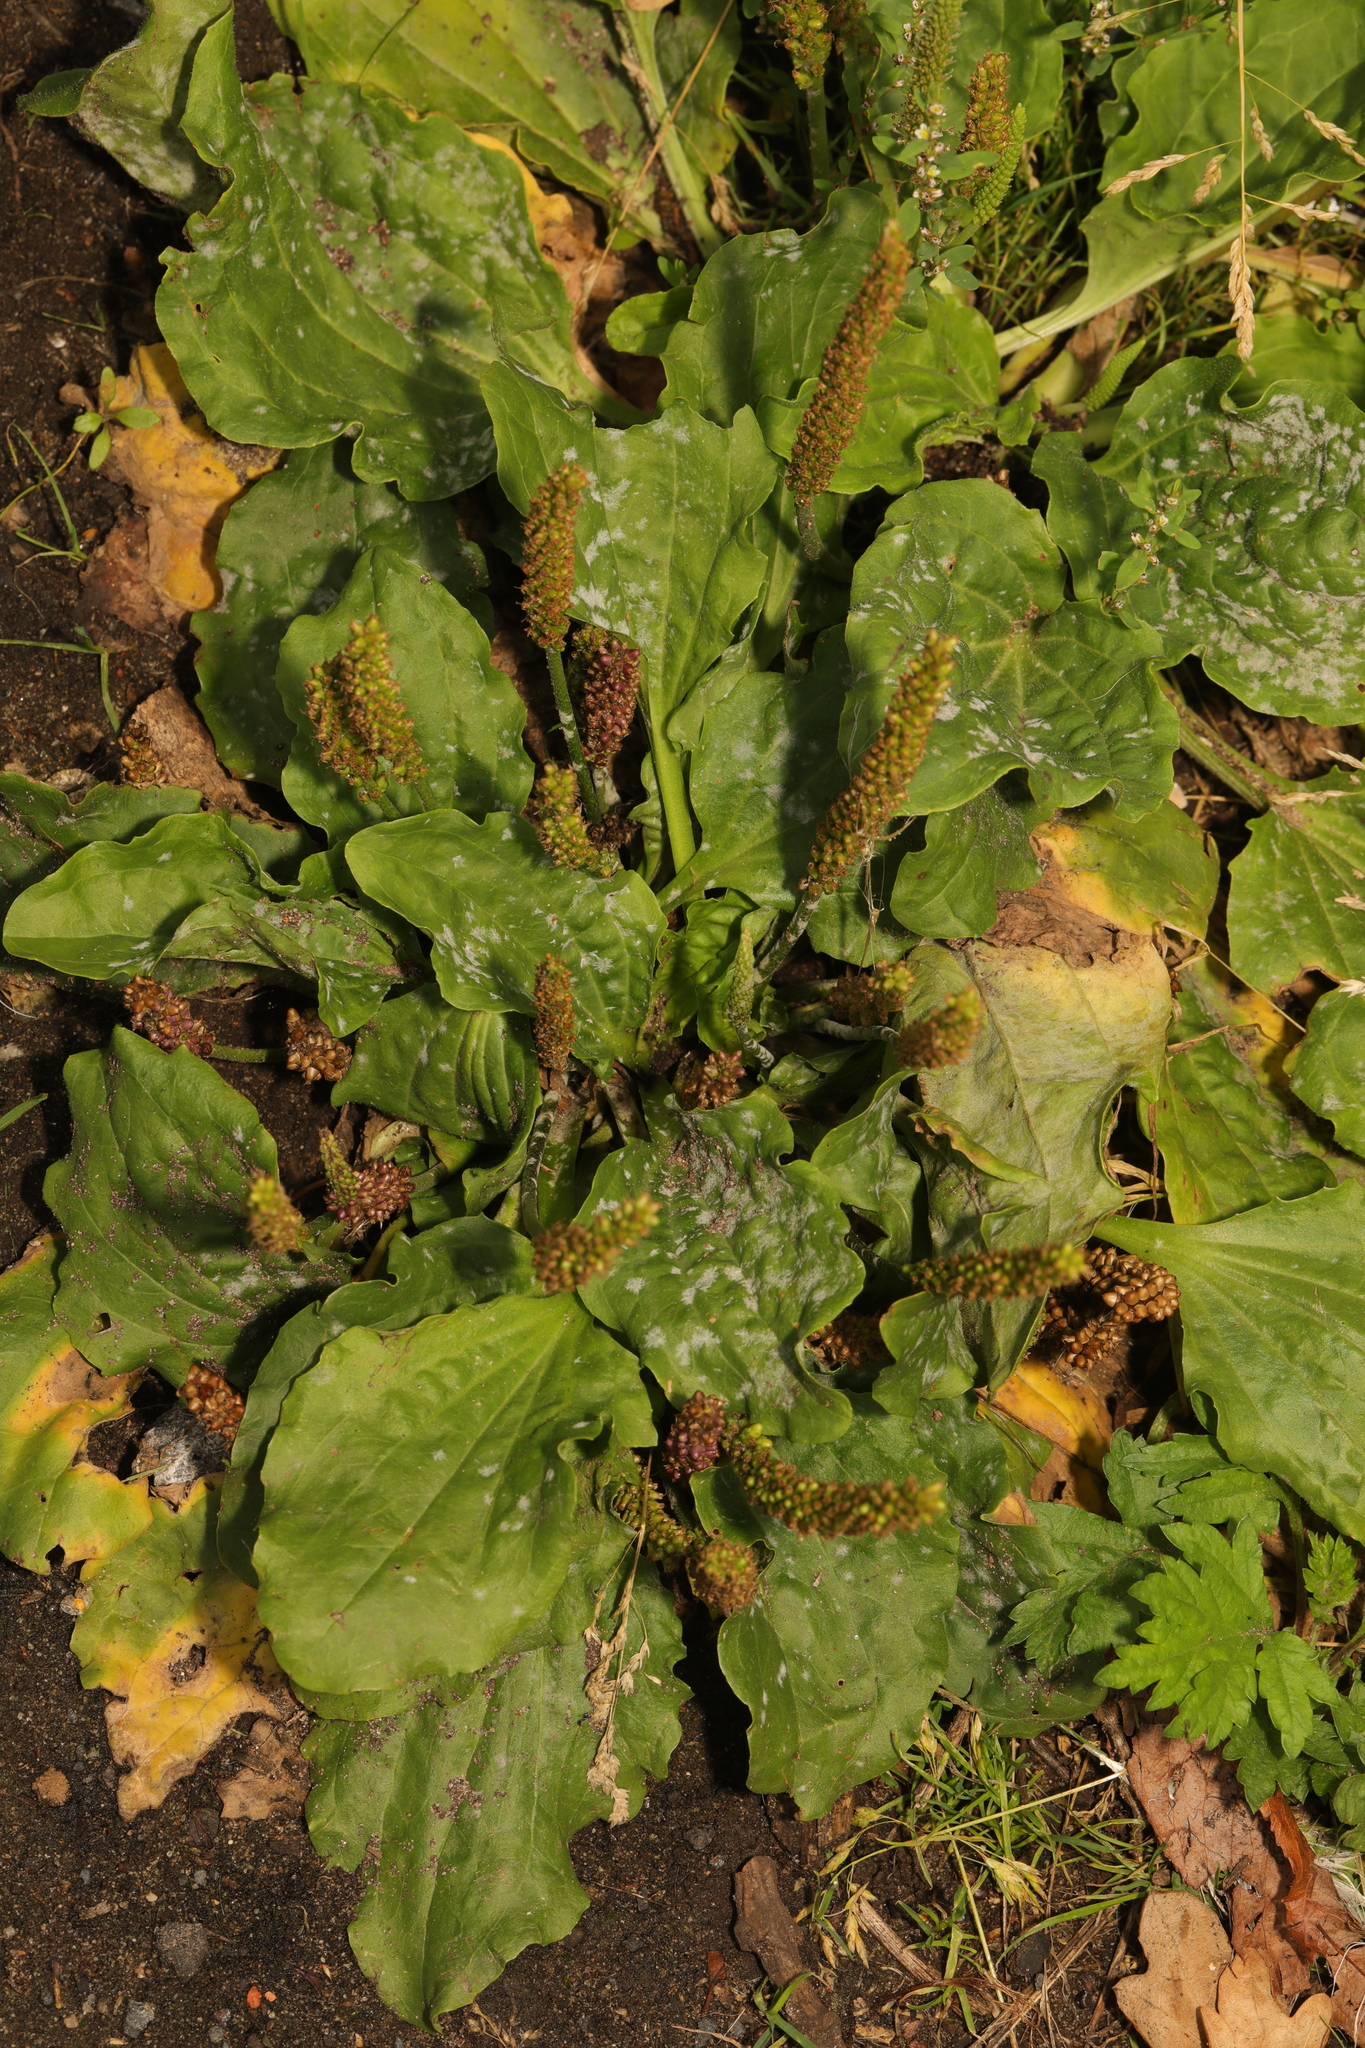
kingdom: Plantae
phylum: Tracheophyta
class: Magnoliopsida
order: Lamiales
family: Plantaginaceae
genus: Plantago
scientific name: Plantago major
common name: Common plantain
